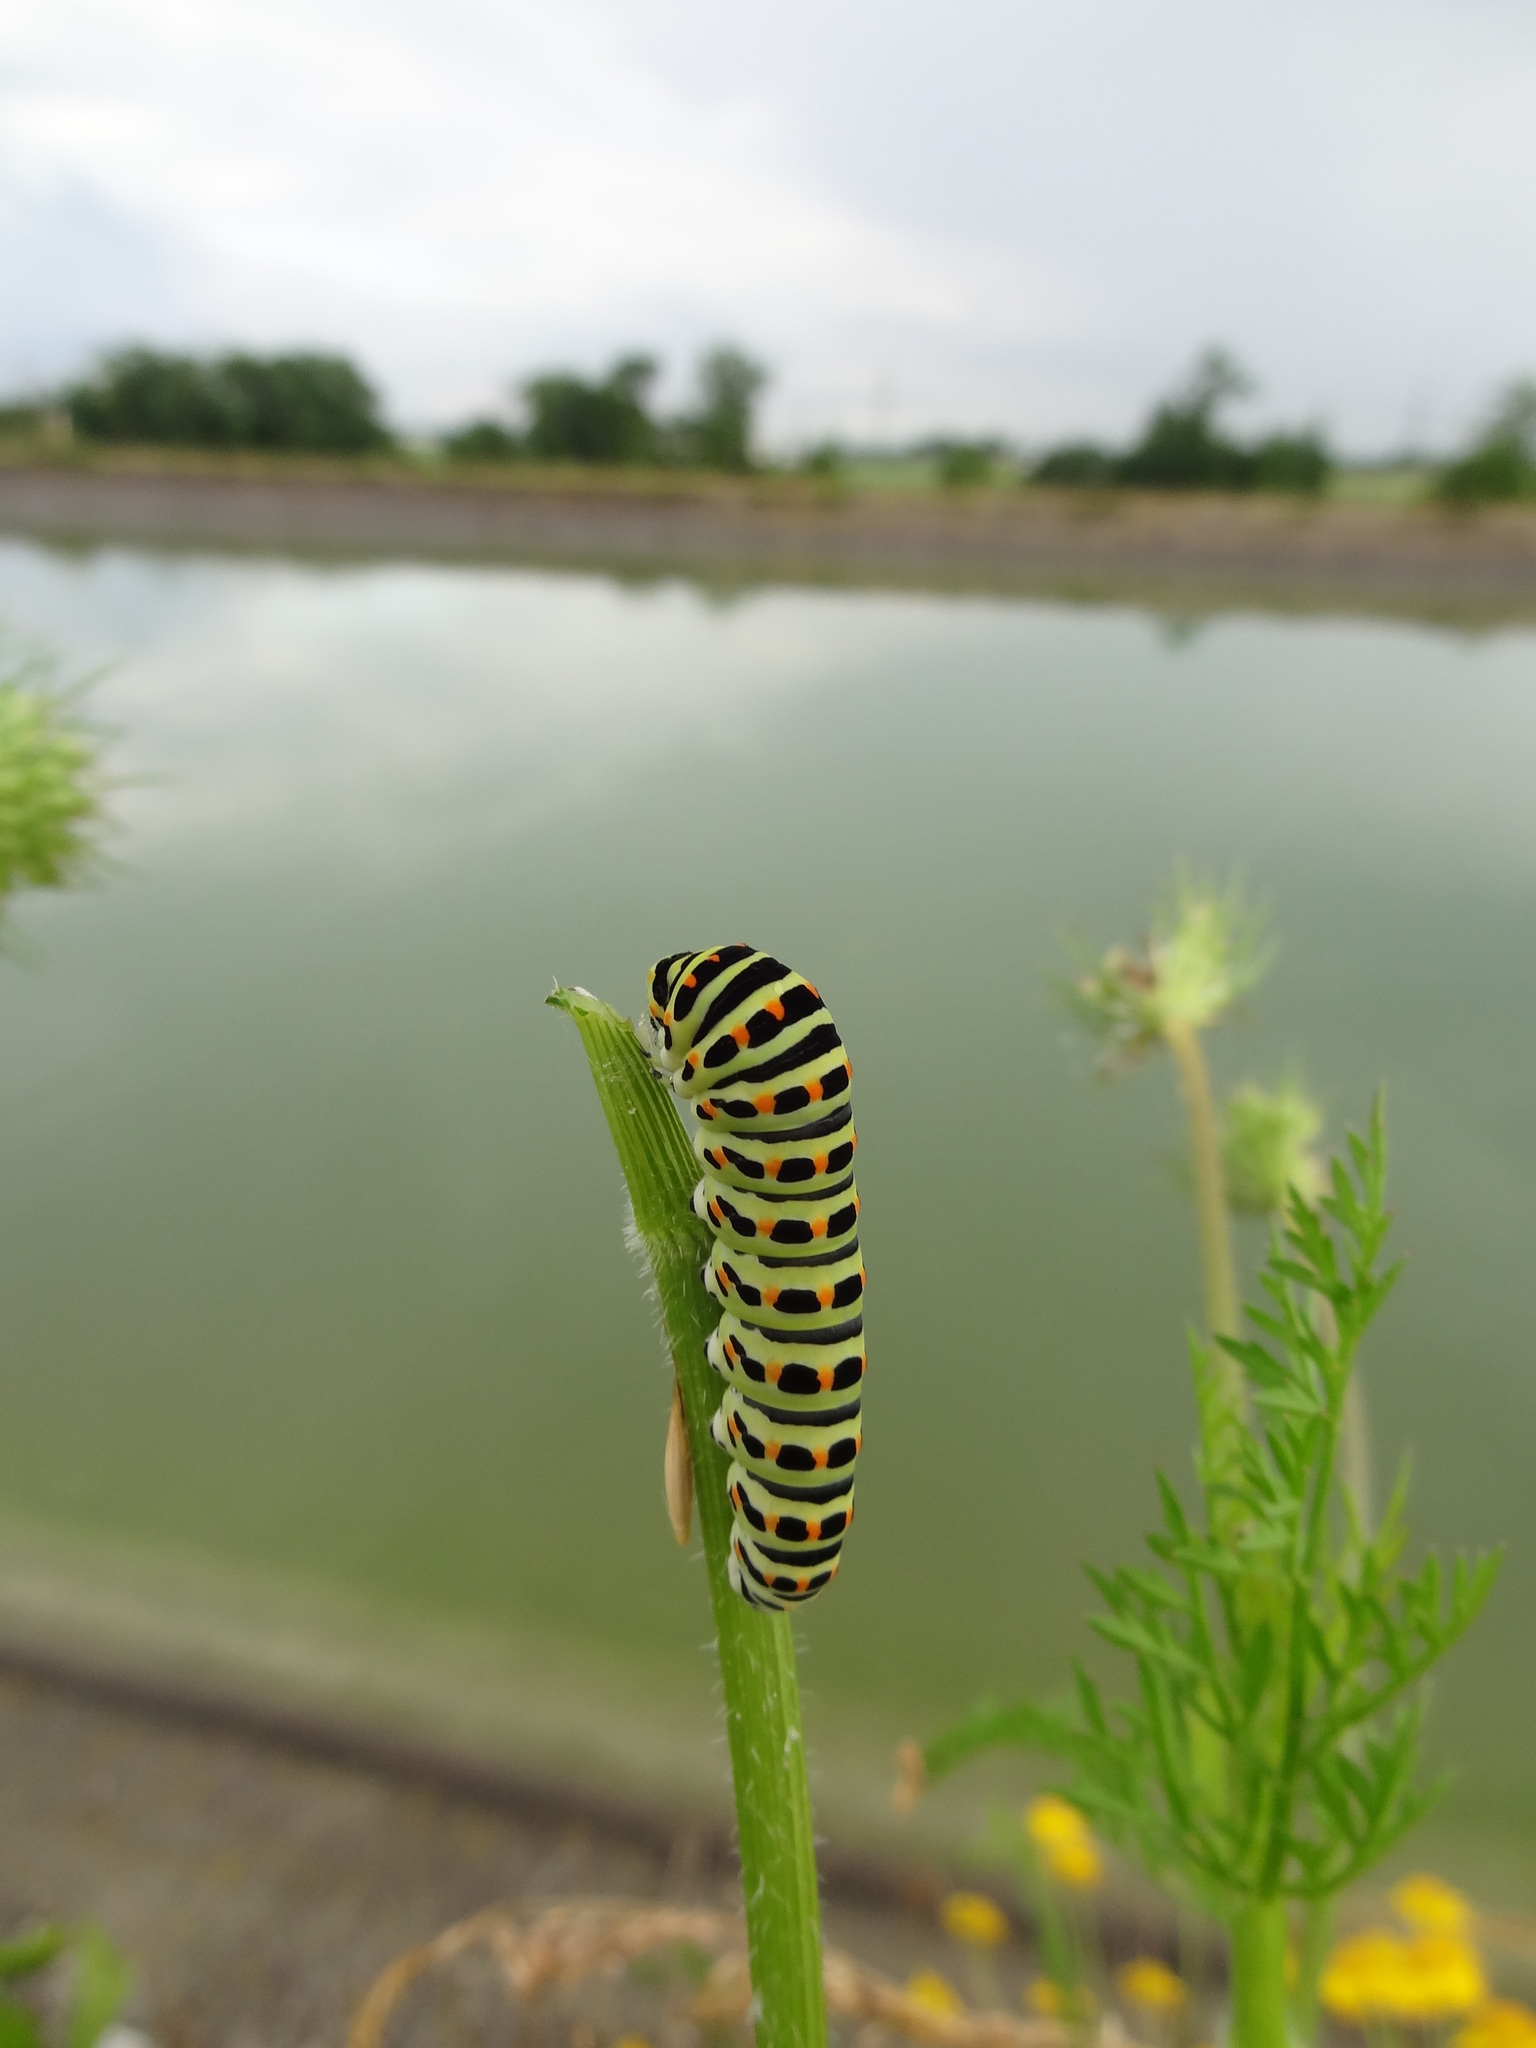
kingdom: Animalia
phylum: Arthropoda
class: Insecta
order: Lepidoptera
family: Papilionidae
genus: Papilio
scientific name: Papilio machaon
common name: Swallowtail
